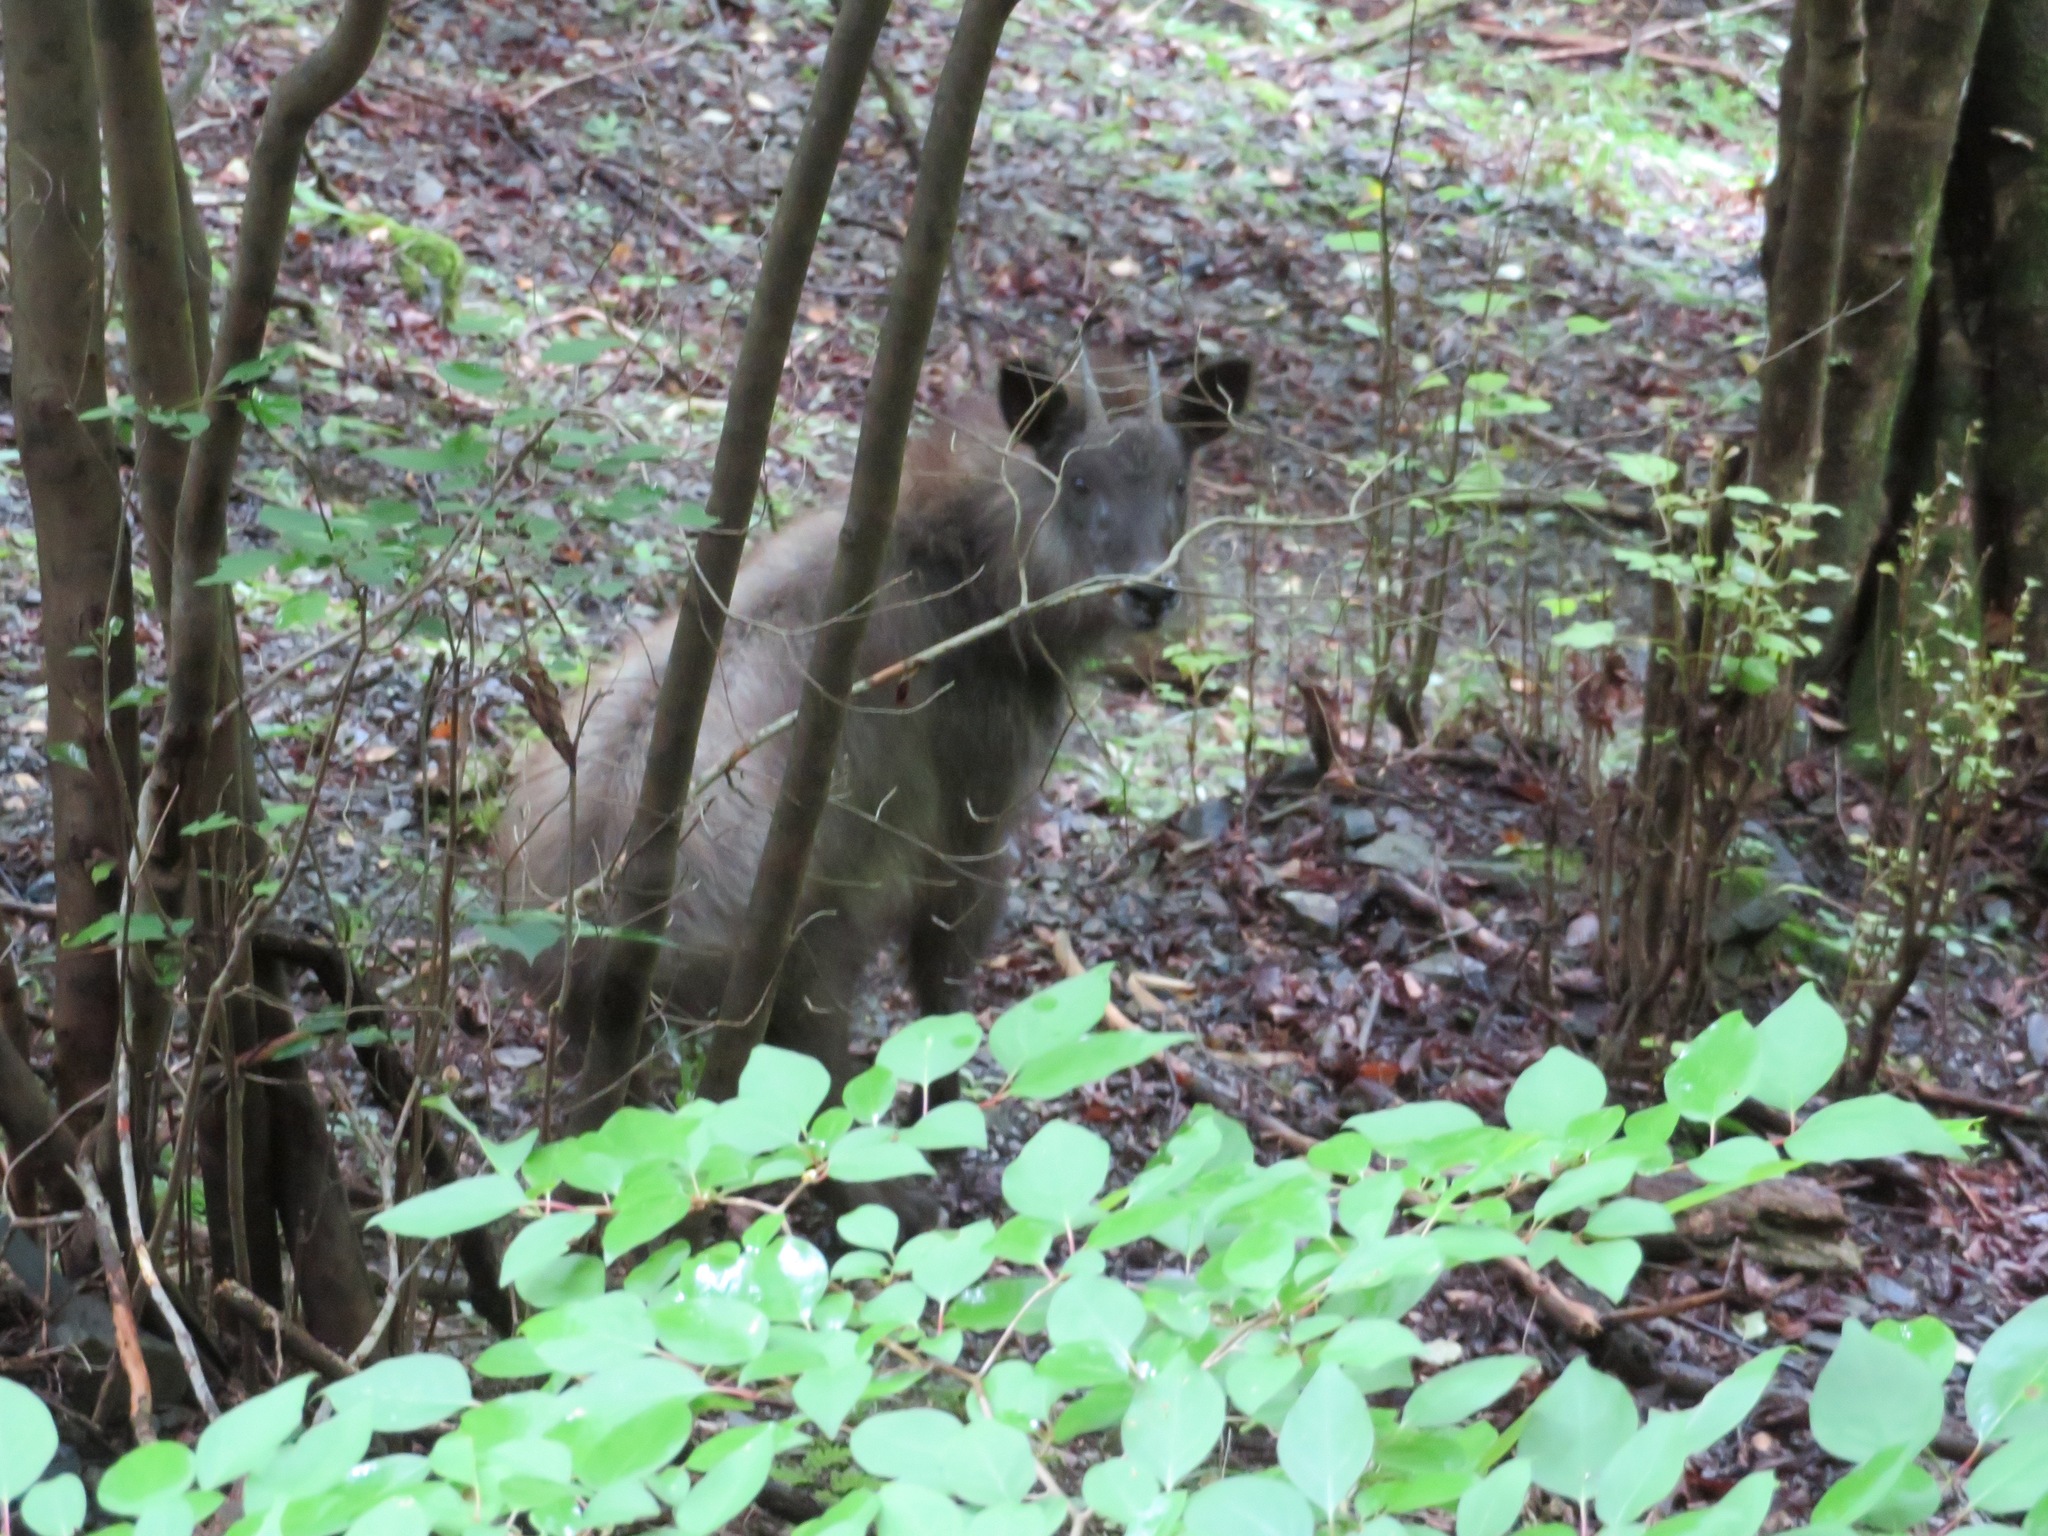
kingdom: Animalia
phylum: Chordata
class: Mammalia
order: Artiodactyla
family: Bovidae
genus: Capricornis
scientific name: Capricornis crispus
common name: Japanese serow
